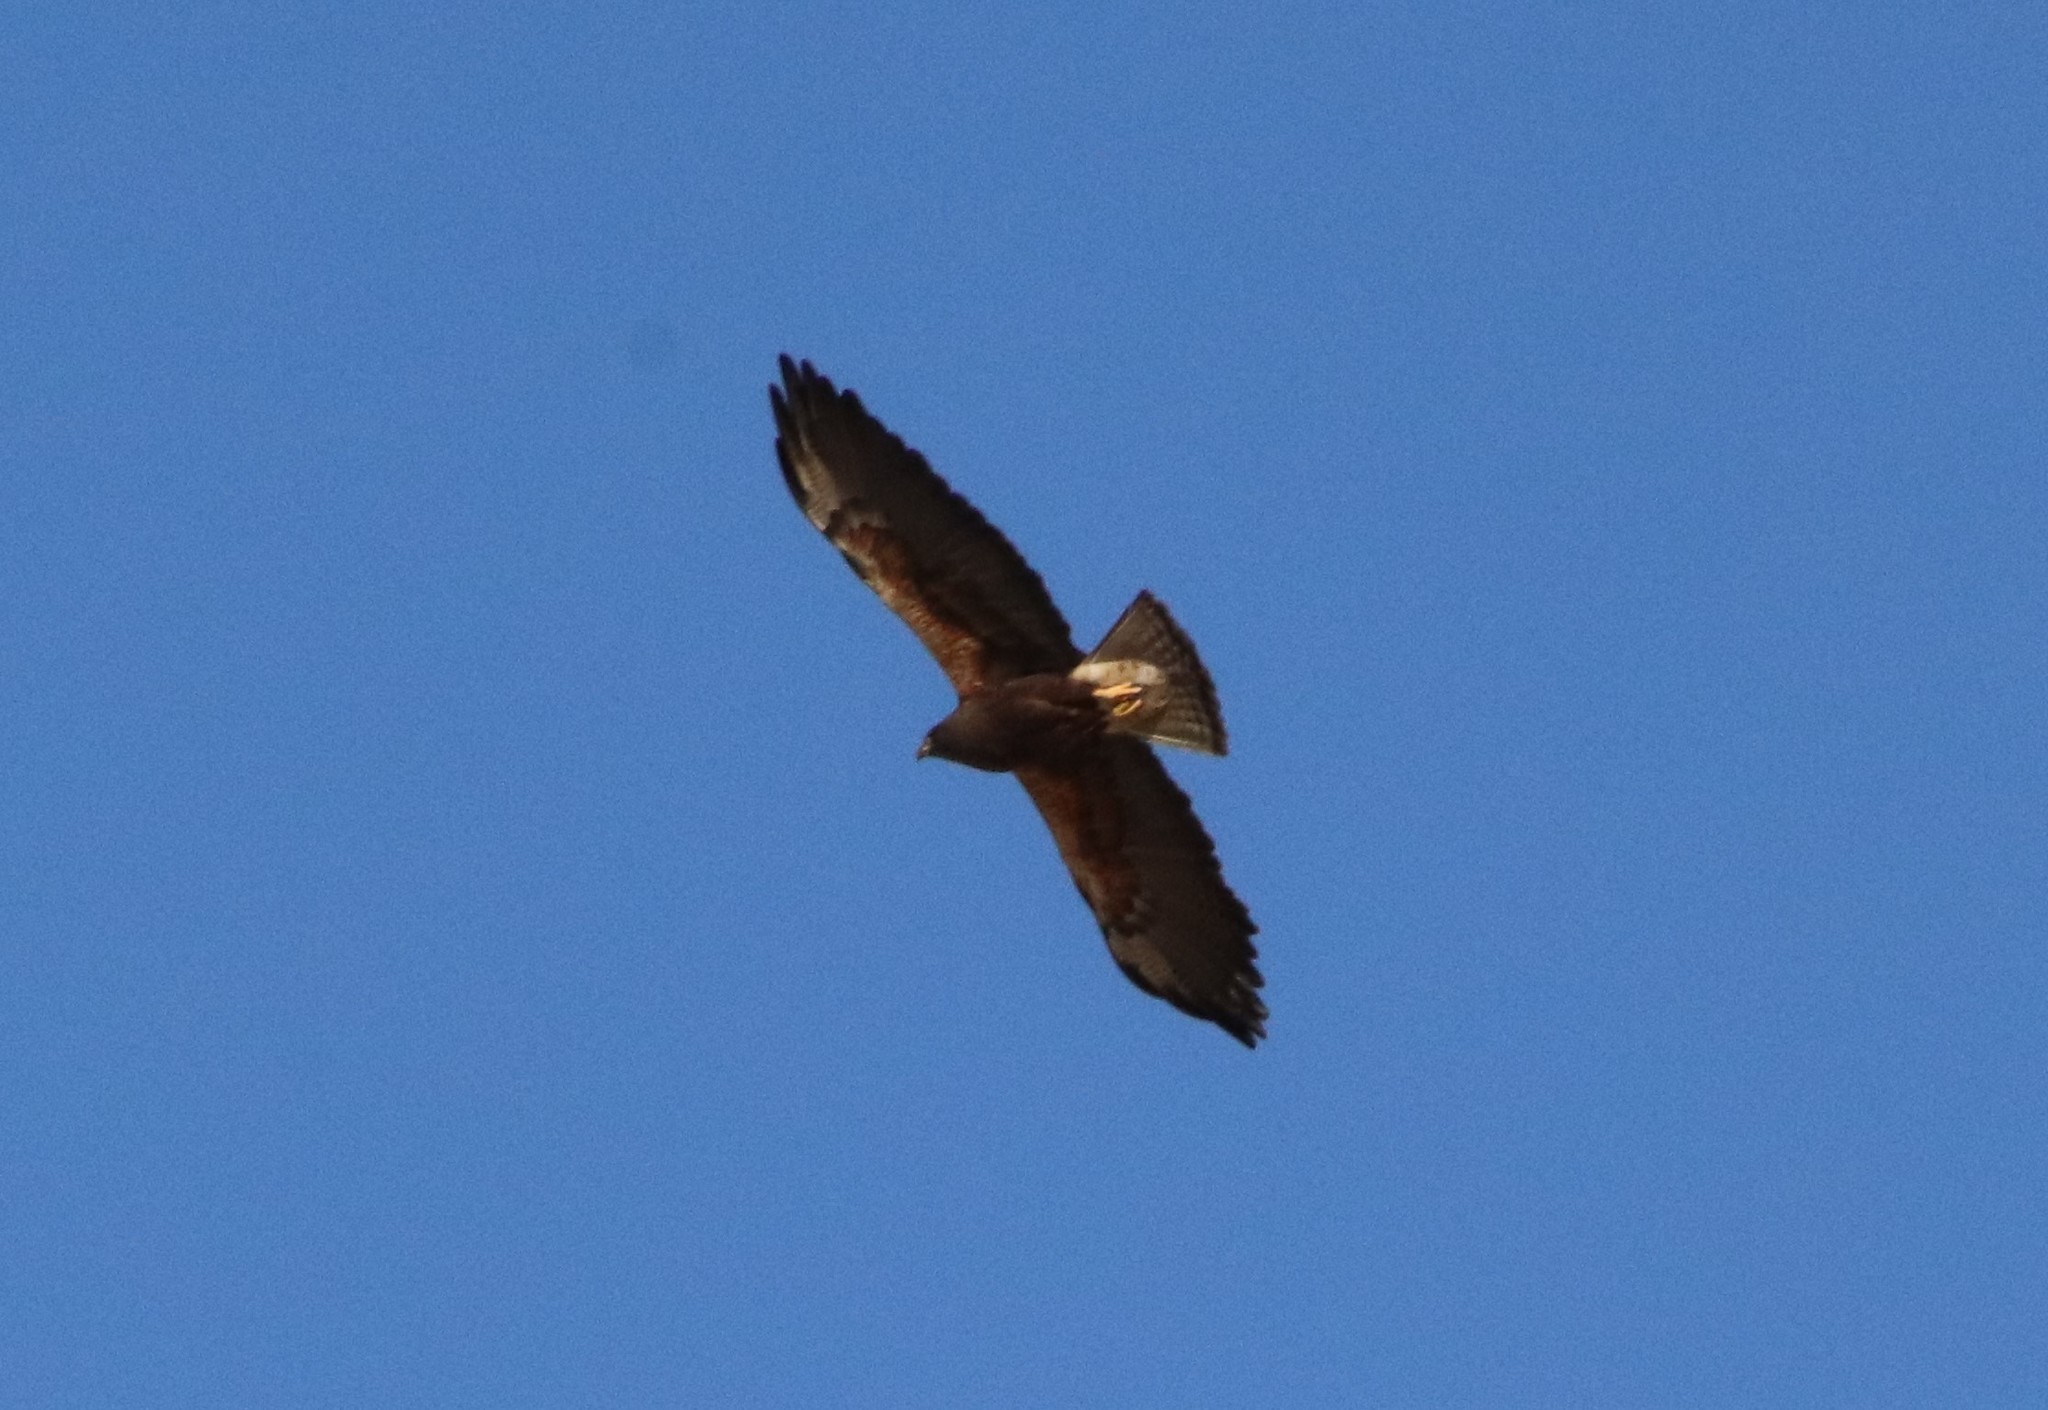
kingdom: Animalia
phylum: Chordata
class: Aves
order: Accipitriformes
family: Accipitridae
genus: Buteo
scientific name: Buteo swainsoni
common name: Swainson's hawk
